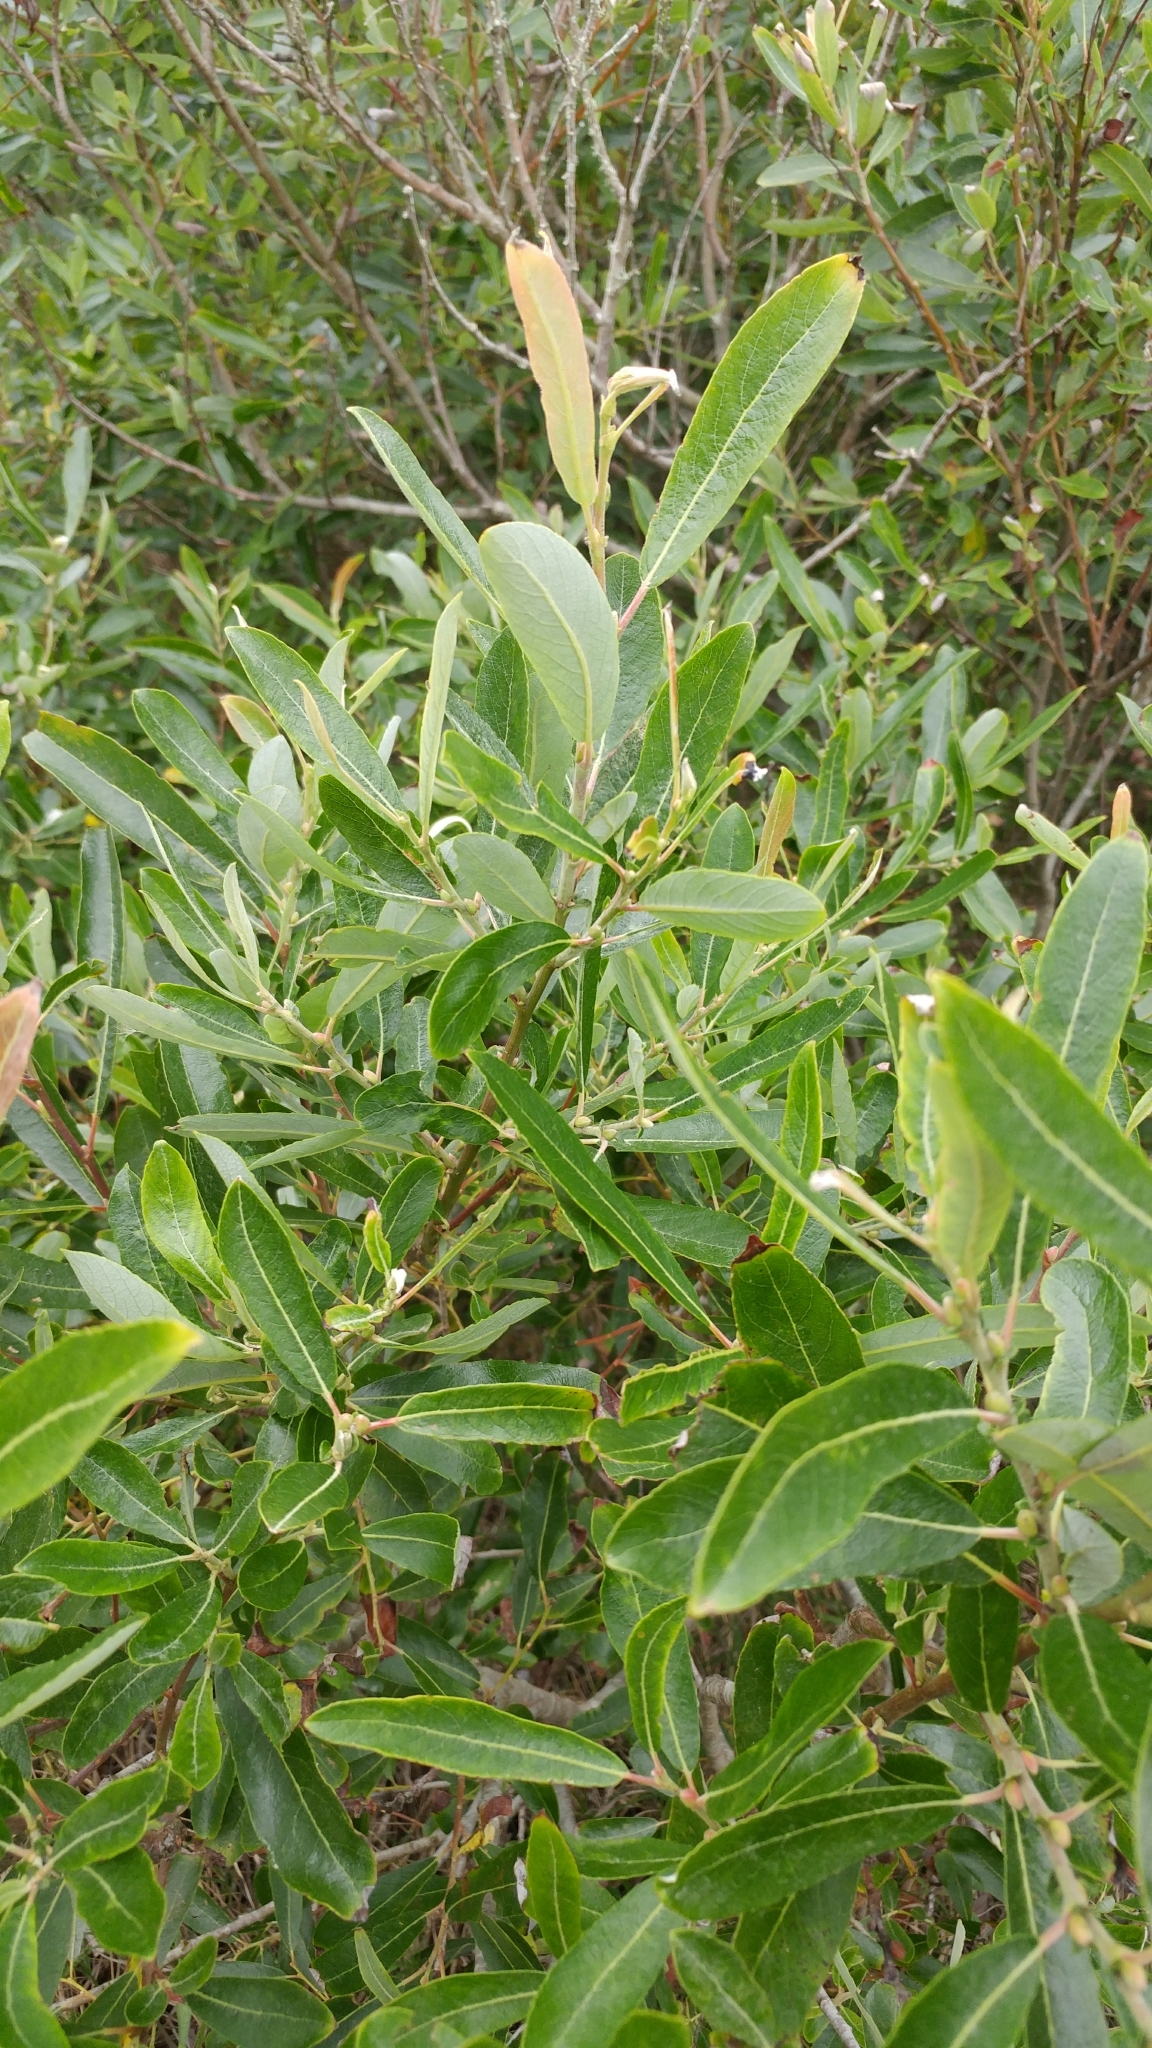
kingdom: Plantae
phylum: Tracheophyta
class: Magnoliopsida
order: Malpighiales
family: Salicaceae
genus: Salix
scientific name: Salix lasiolepis
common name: Arroyo willow
